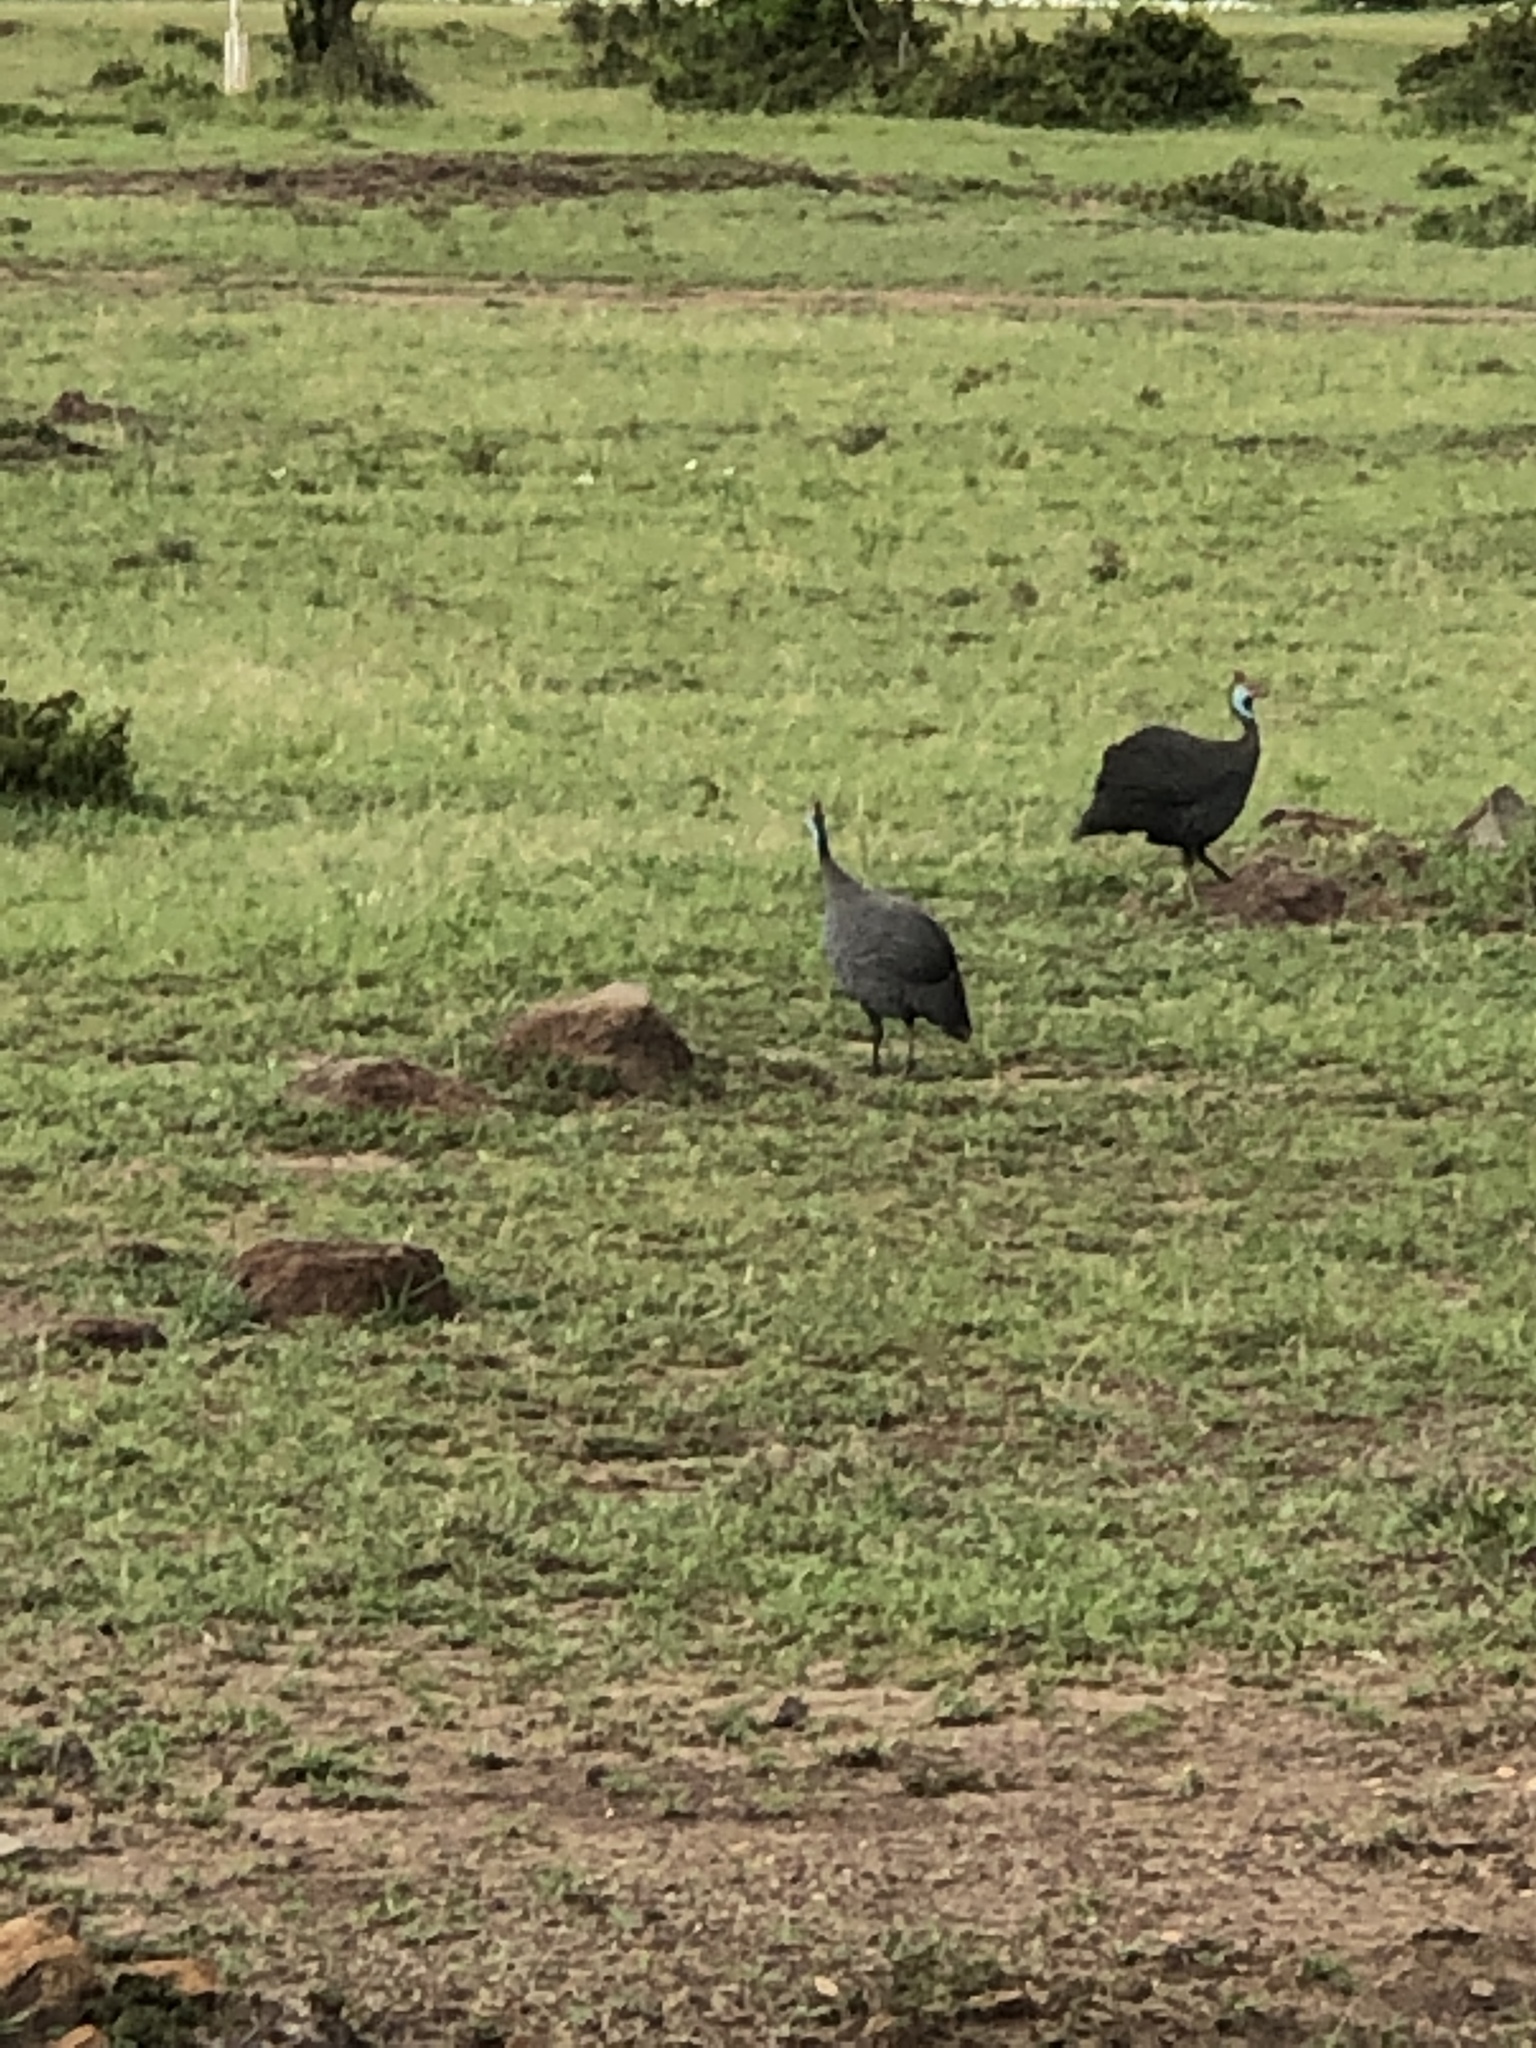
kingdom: Animalia
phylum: Chordata
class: Aves
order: Galliformes
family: Numididae
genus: Numida
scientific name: Numida meleagris
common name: Helmeted guineafowl
